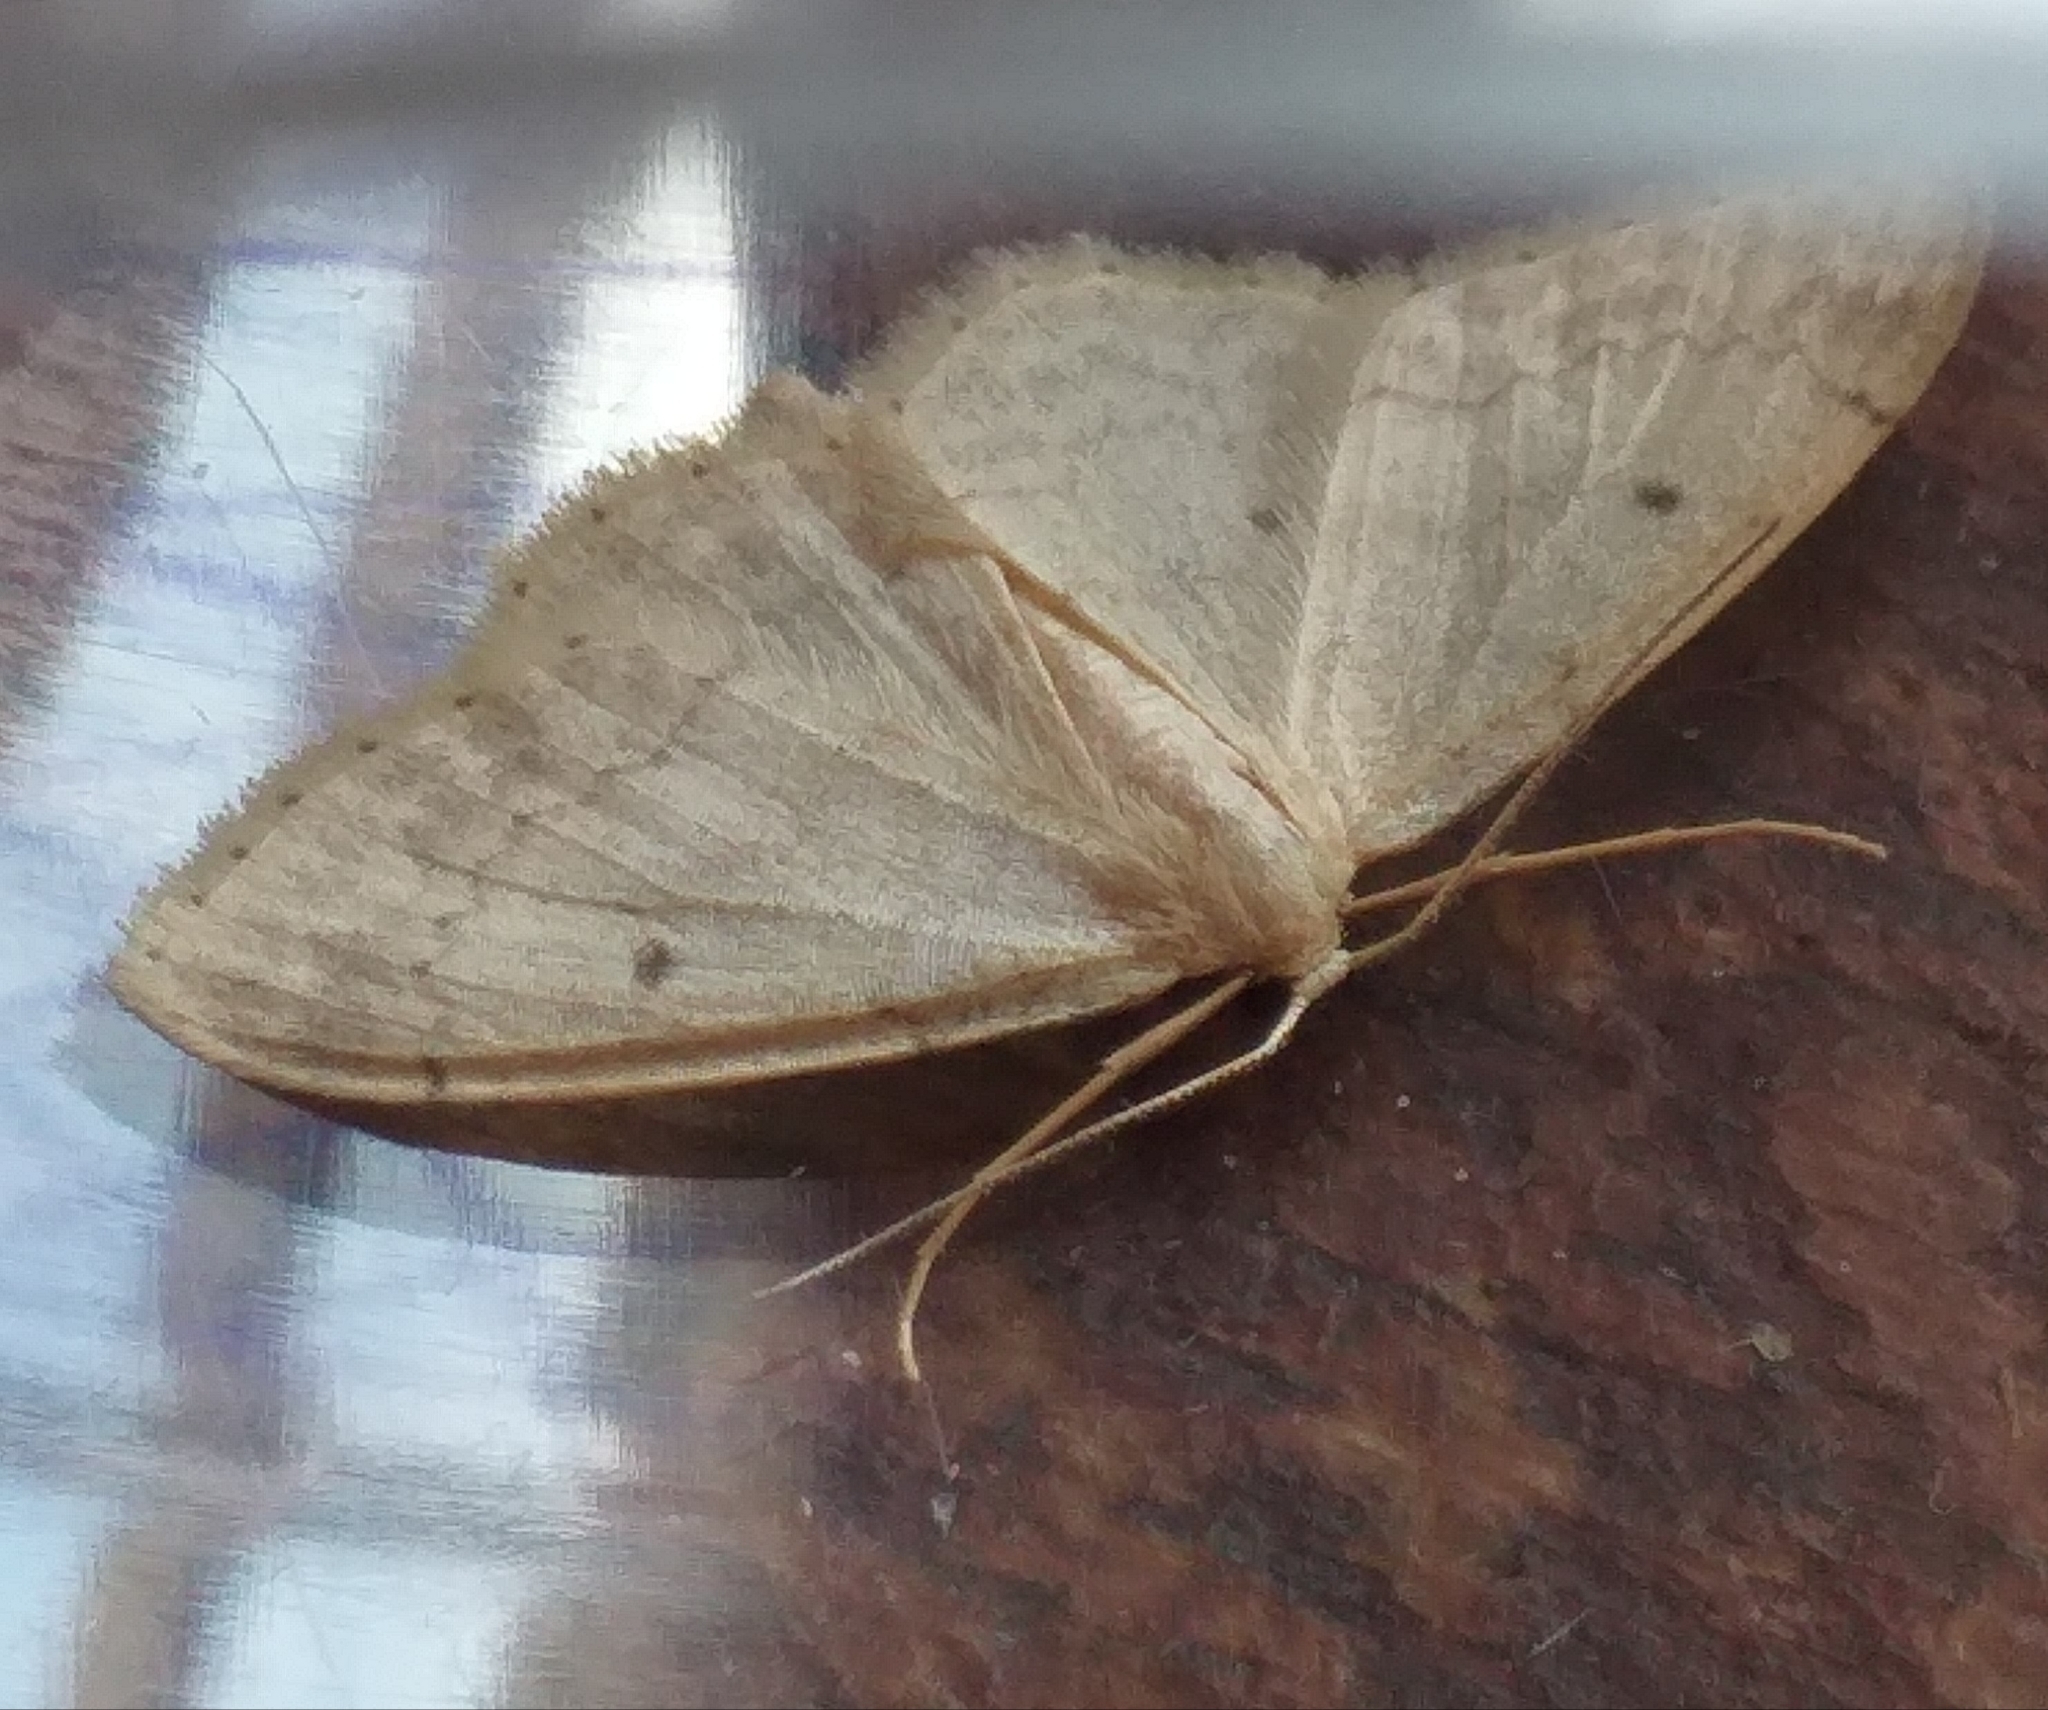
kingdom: Animalia
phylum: Arthropoda
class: Insecta
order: Lepidoptera
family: Geometridae
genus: Idaea
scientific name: Idaea biselata
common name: Small fan-footed wave
